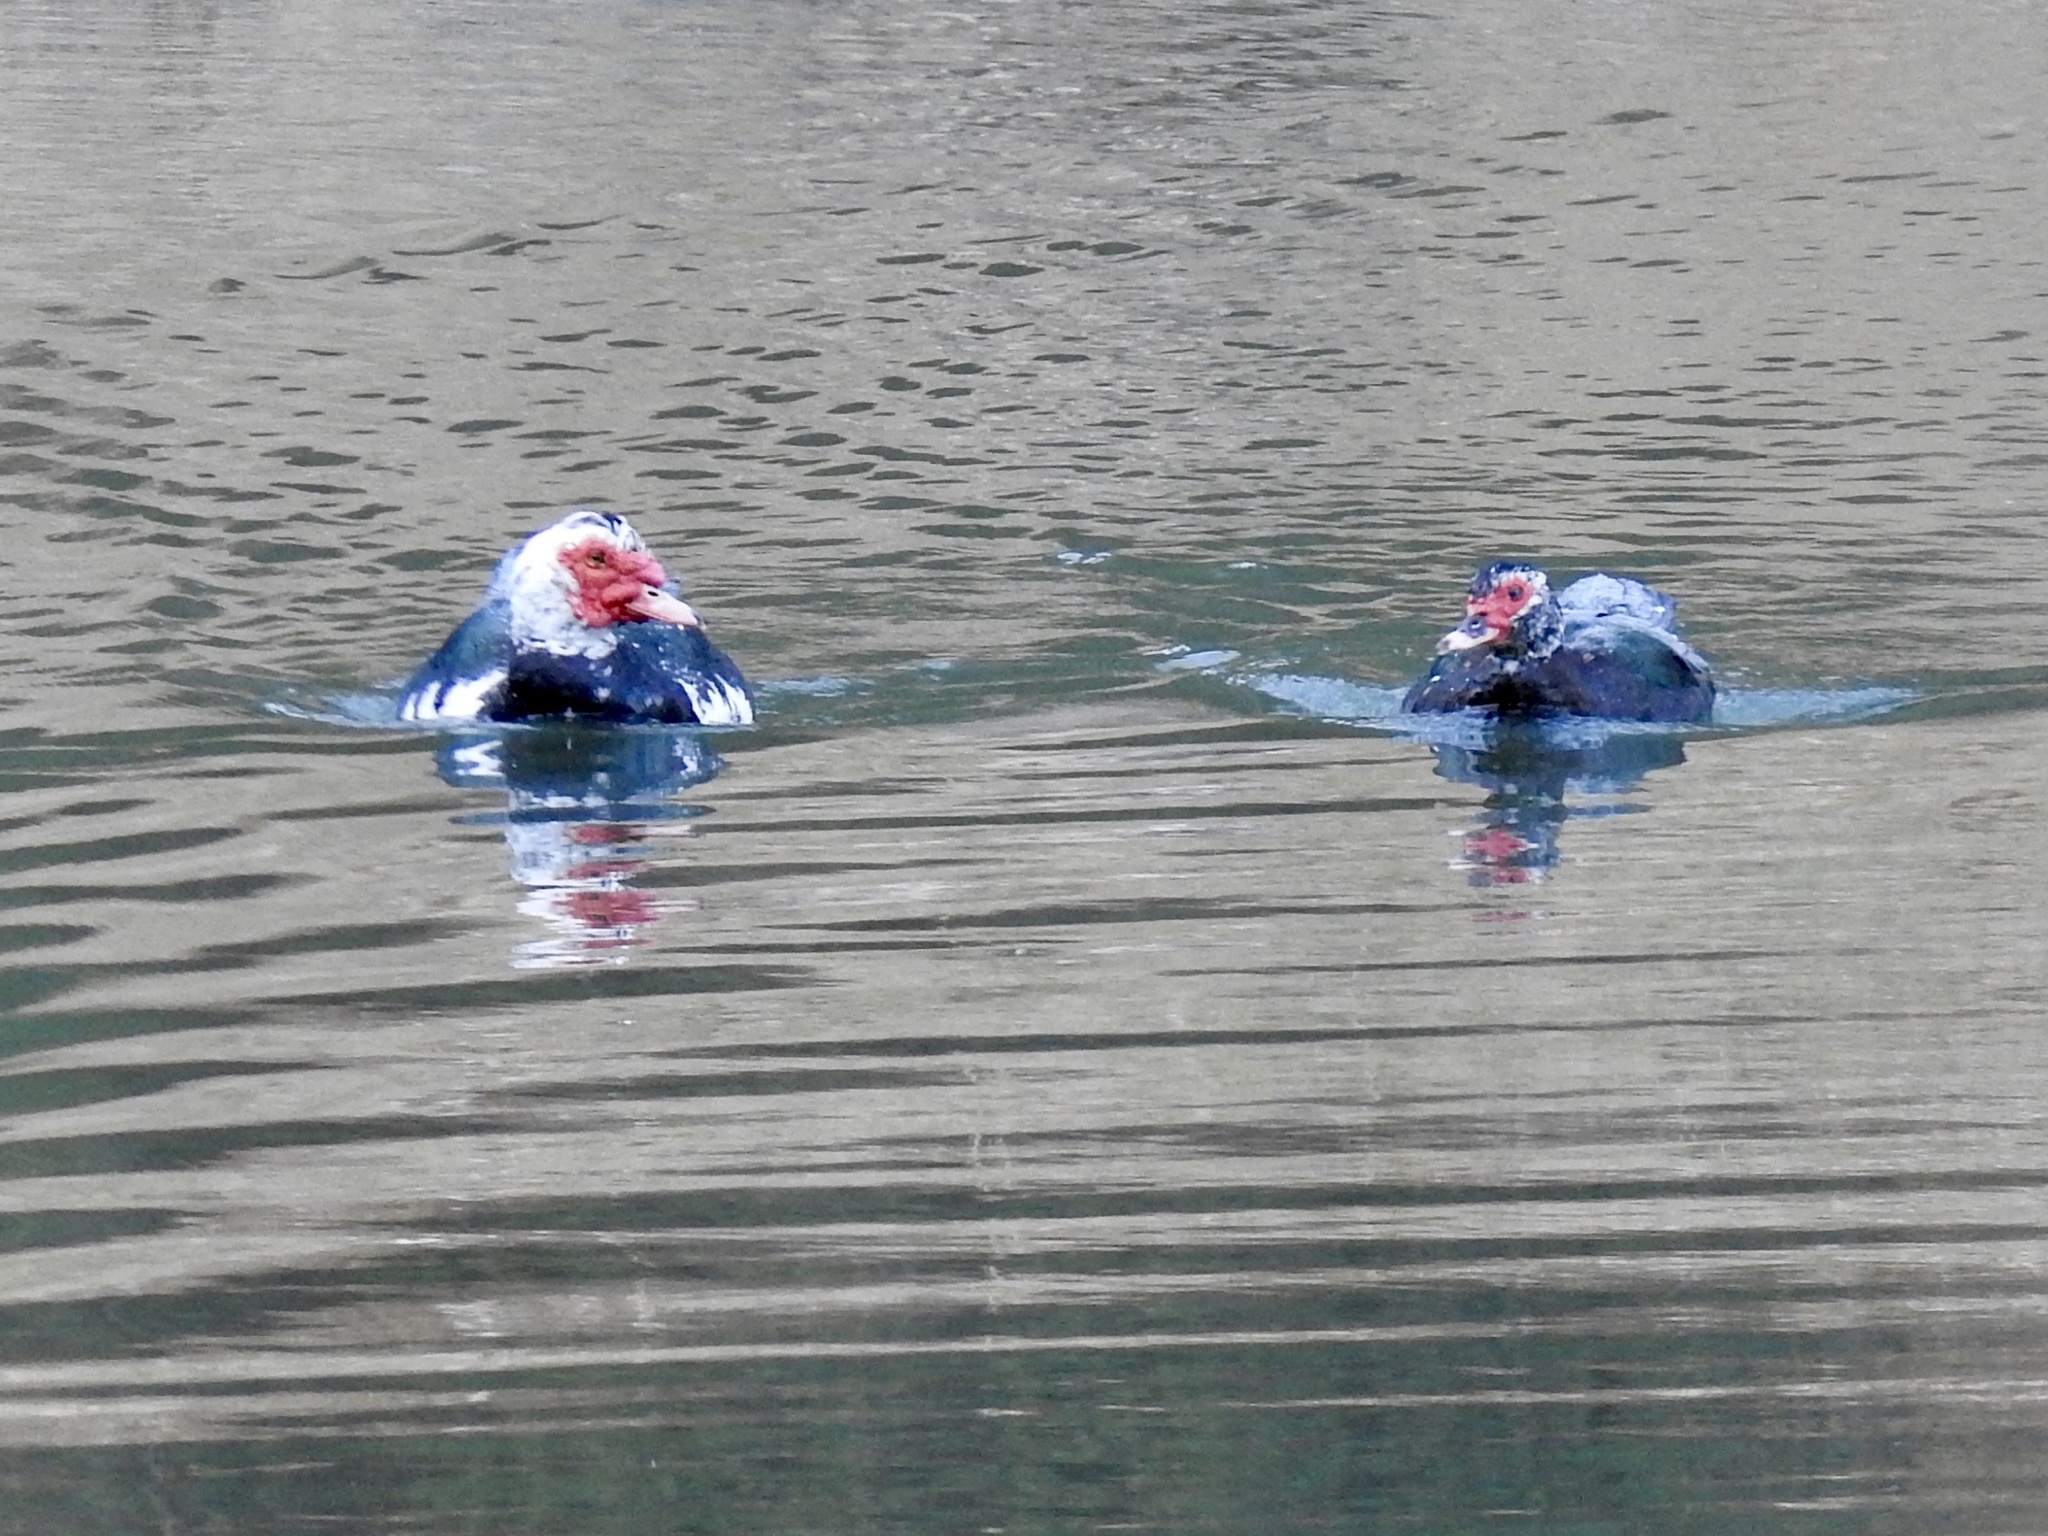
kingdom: Animalia
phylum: Chordata
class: Aves
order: Anseriformes
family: Anatidae
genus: Cairina
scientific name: Cairina moschata
